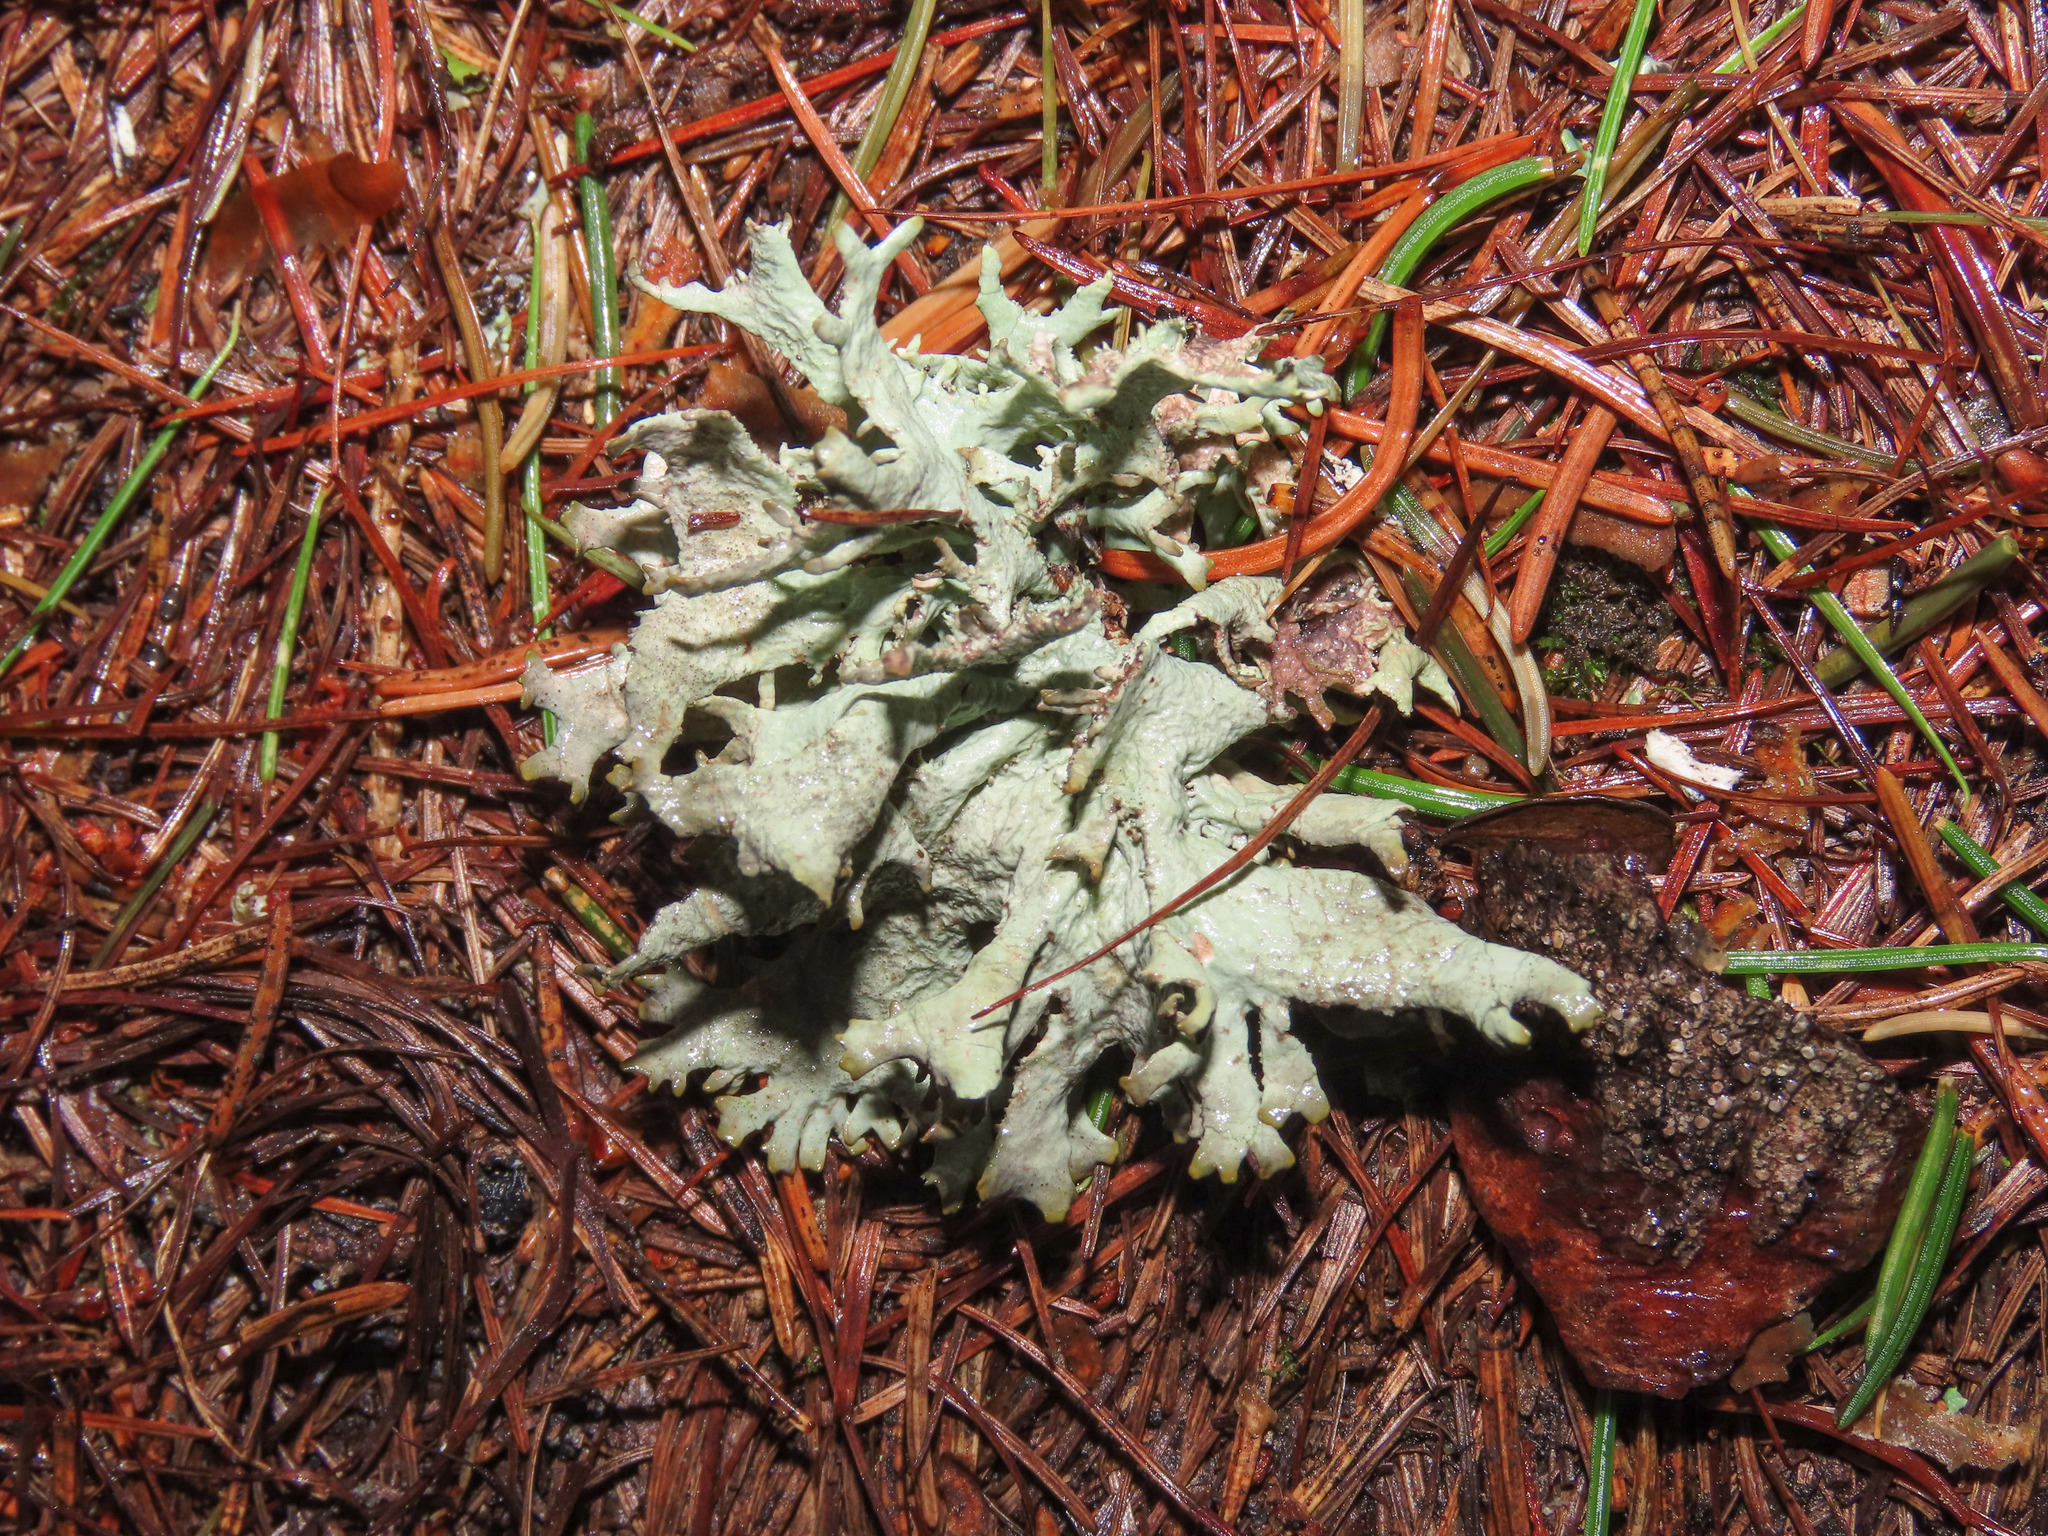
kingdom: Fungi
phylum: Ascomycota
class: Lecanoromycetes
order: Lecanorales
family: Parmeliaceae
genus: Pseudevernia
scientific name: Pseudevernia furfuracea
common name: Tree moss
